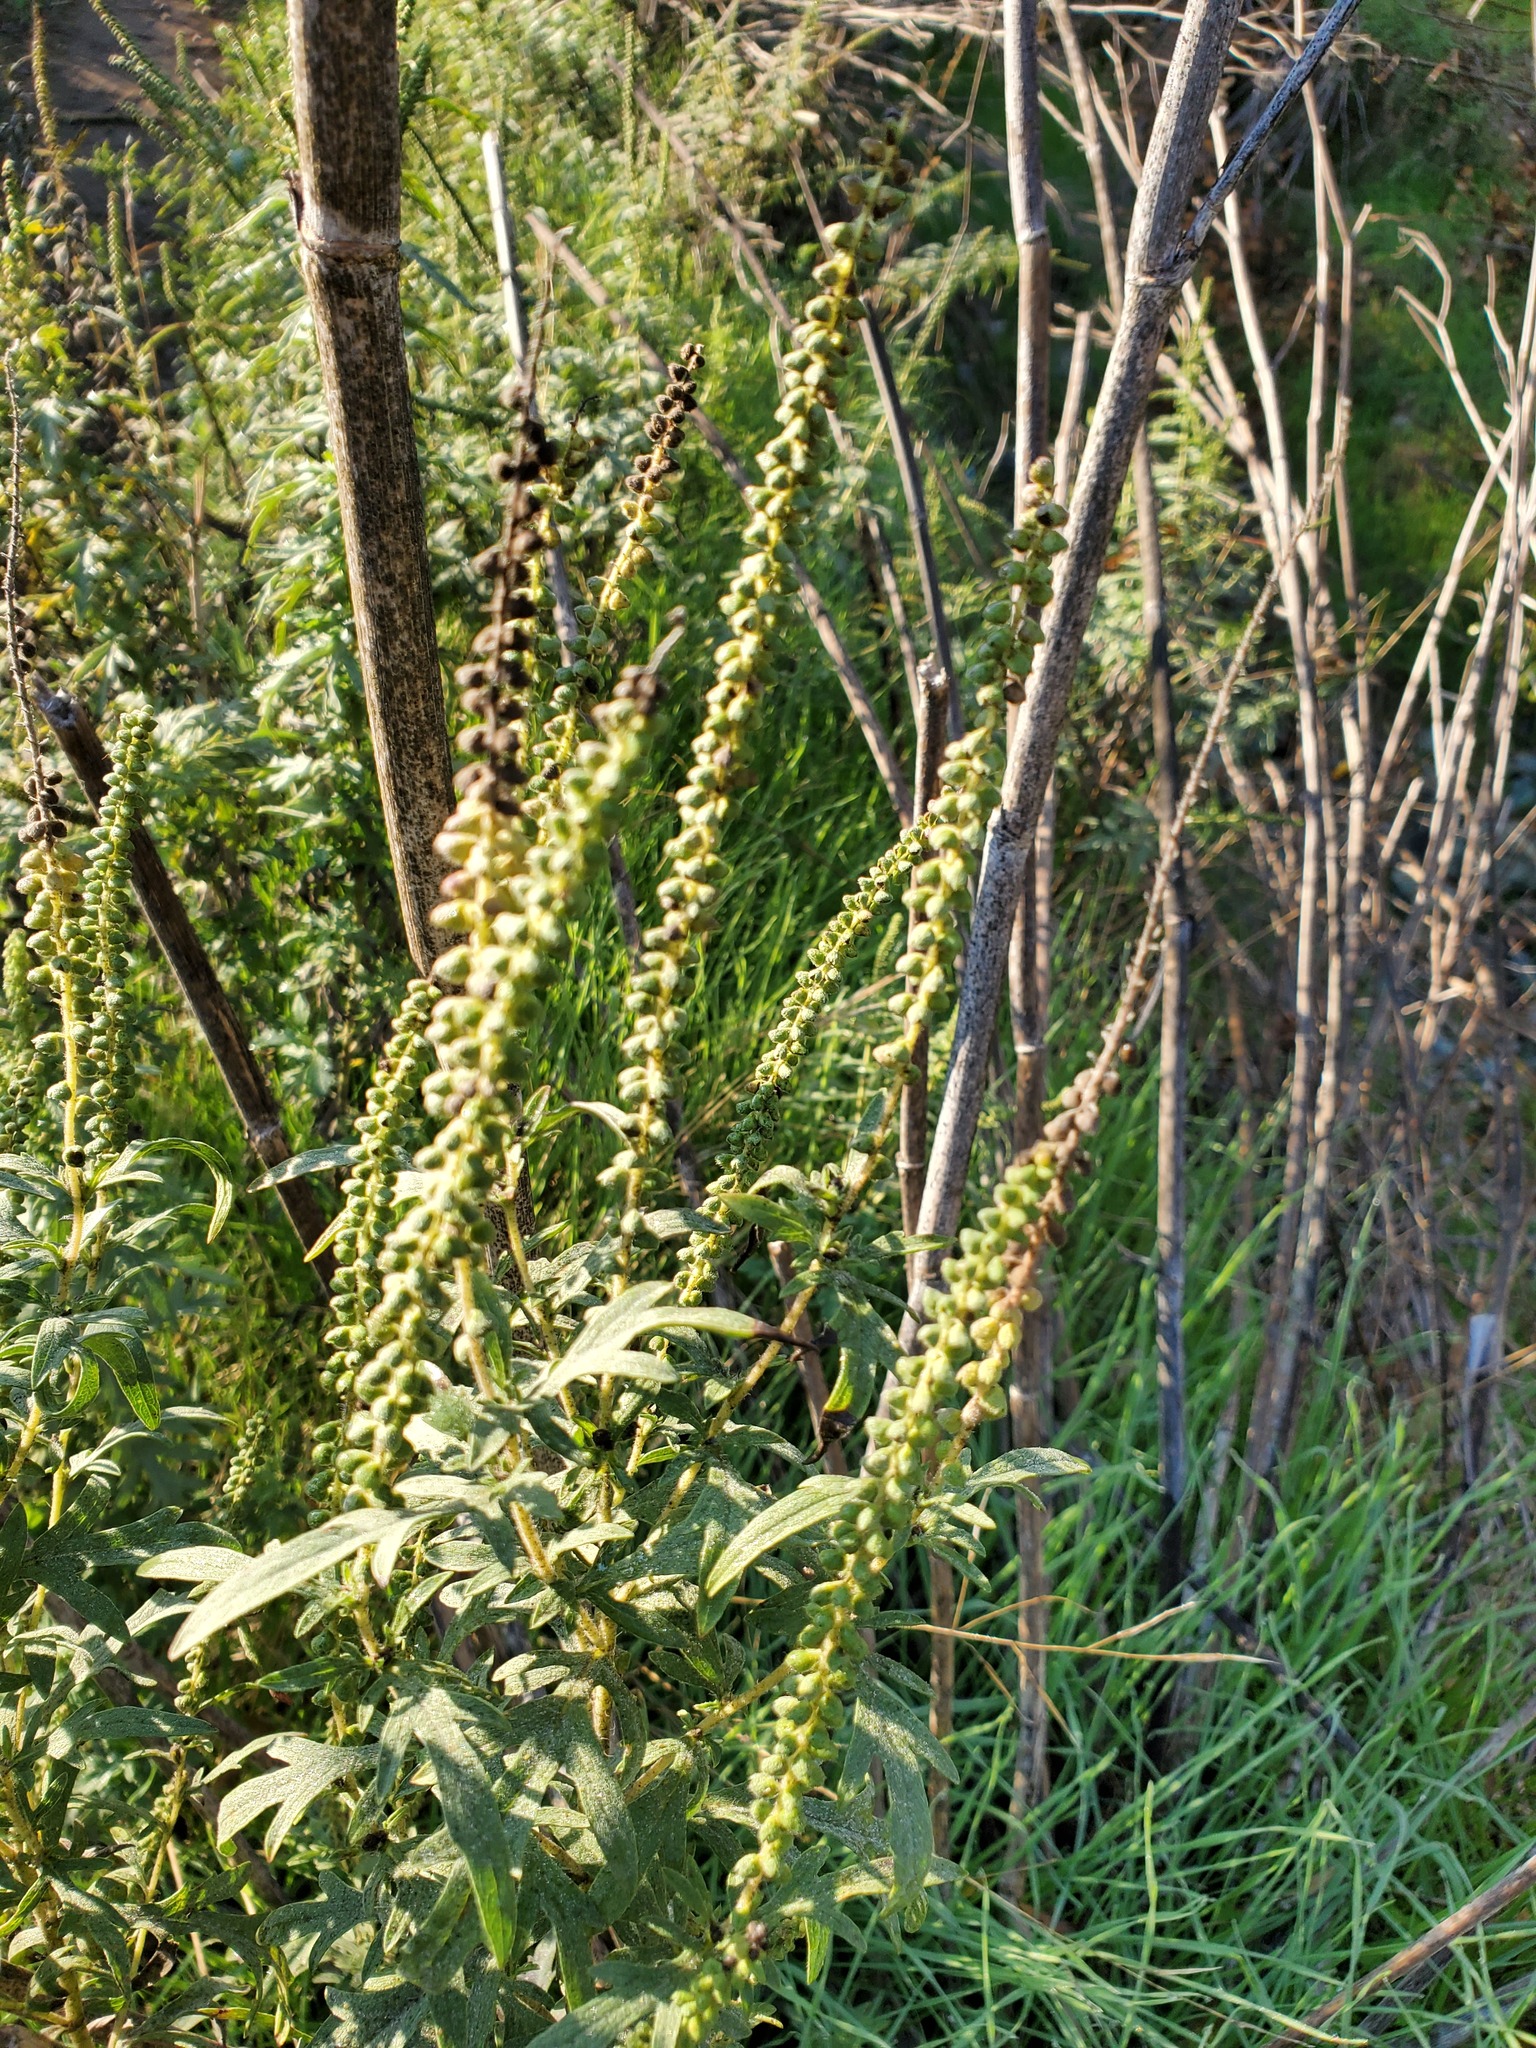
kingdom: Plantae
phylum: Tracheophyta
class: Magnoliopsida
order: Asterales
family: Asteraceae
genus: Ambrosia
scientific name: Ambrosia psilostachya
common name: Perennial ragweed
